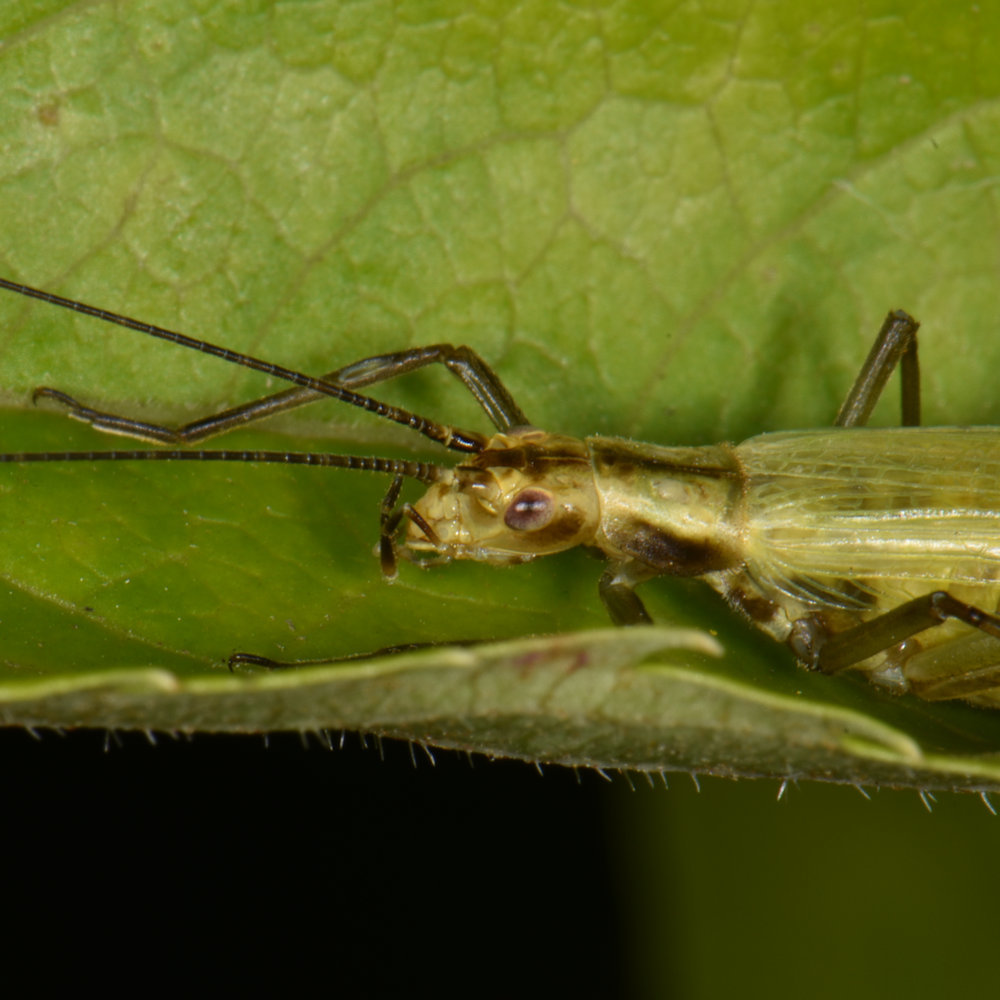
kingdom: Animalia
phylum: Arthropoda
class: Insecta
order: Orthoptera
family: Gryllidae
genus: Oecanthus
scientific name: Oecanthus nigricornis
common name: Black-horned tree cricket
